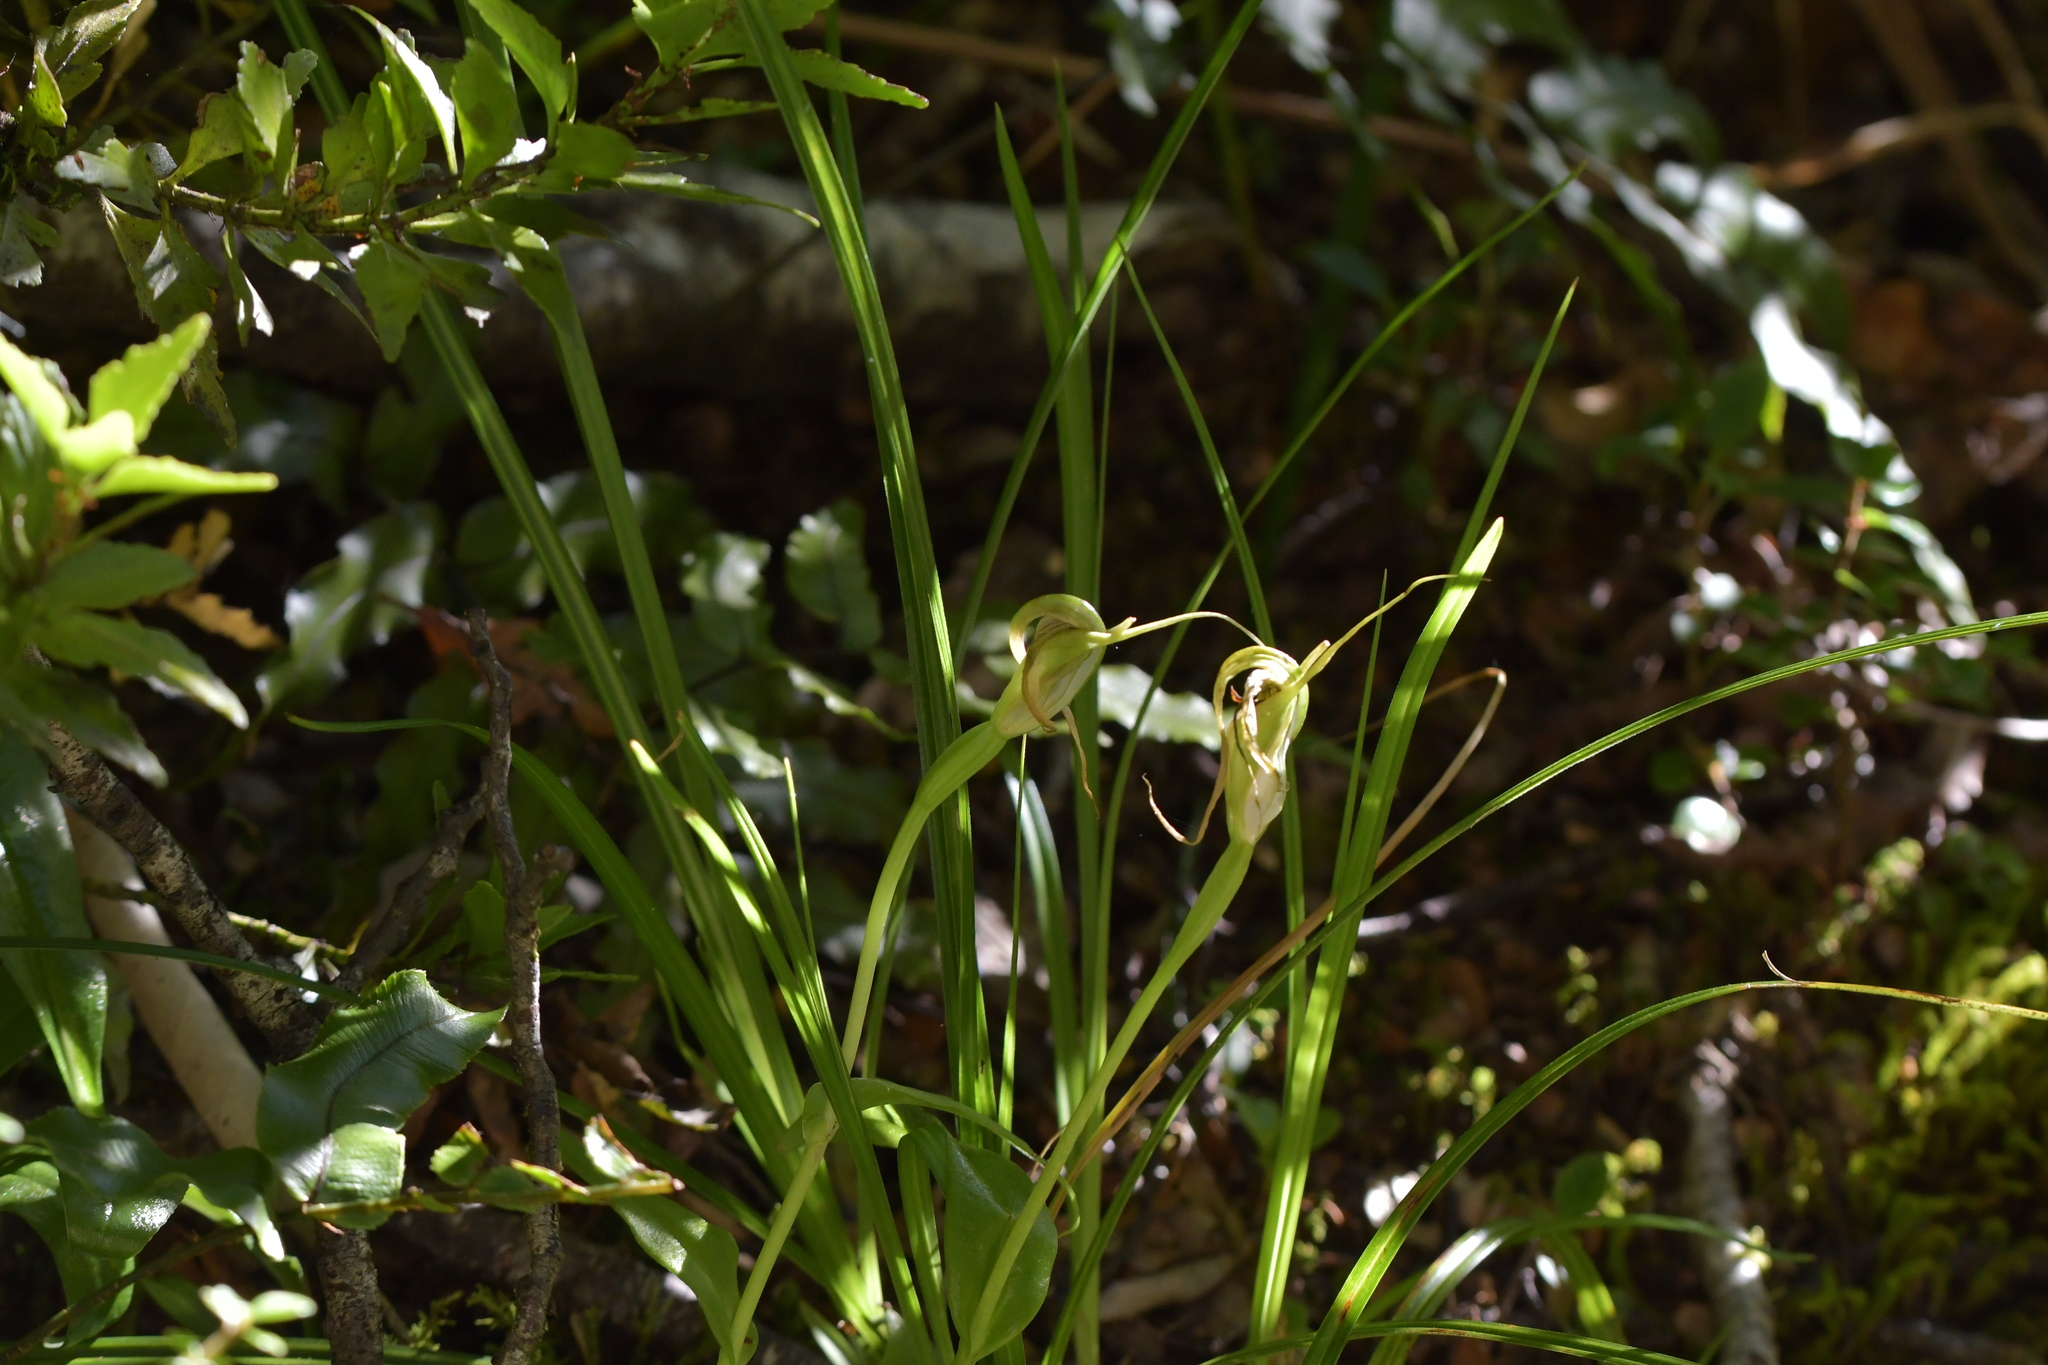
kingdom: Plantae
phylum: Tracheophyta
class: Liliopsida
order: Asparagales
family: Orchidaceae
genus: Pterostylis
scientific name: Pterostylis oliveri
